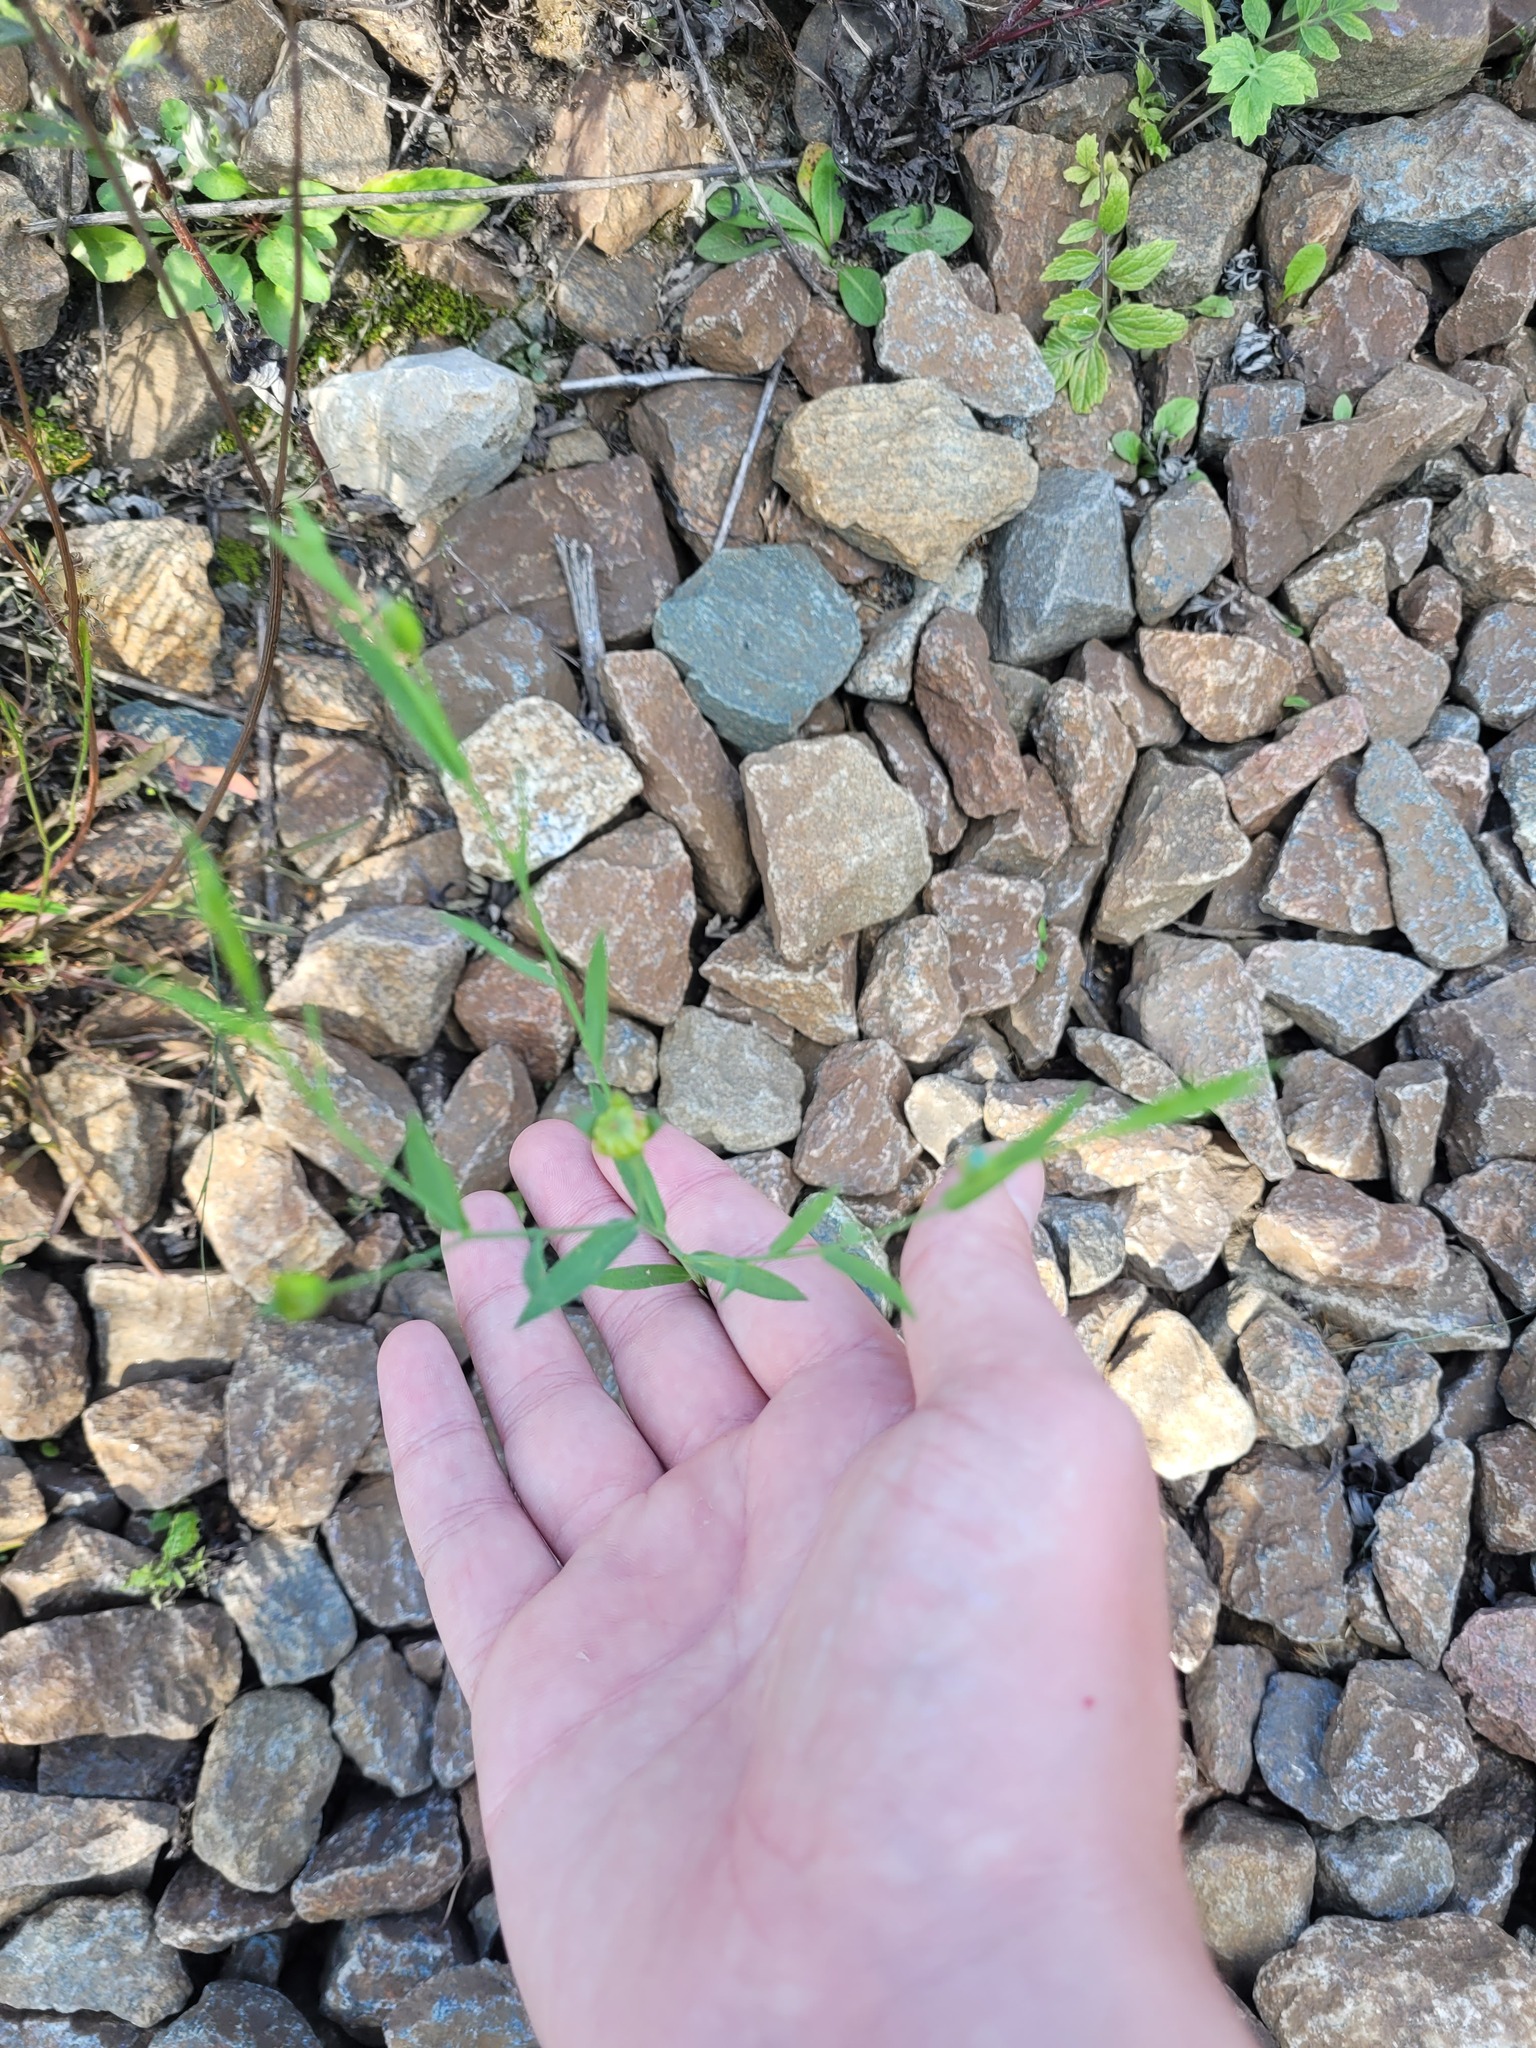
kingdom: Plantae
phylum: Tracheophyta
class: Magnoliopsida
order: Malpighiales
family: Linaceae
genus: Linum
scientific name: Linum usitatissimum
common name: Flax
